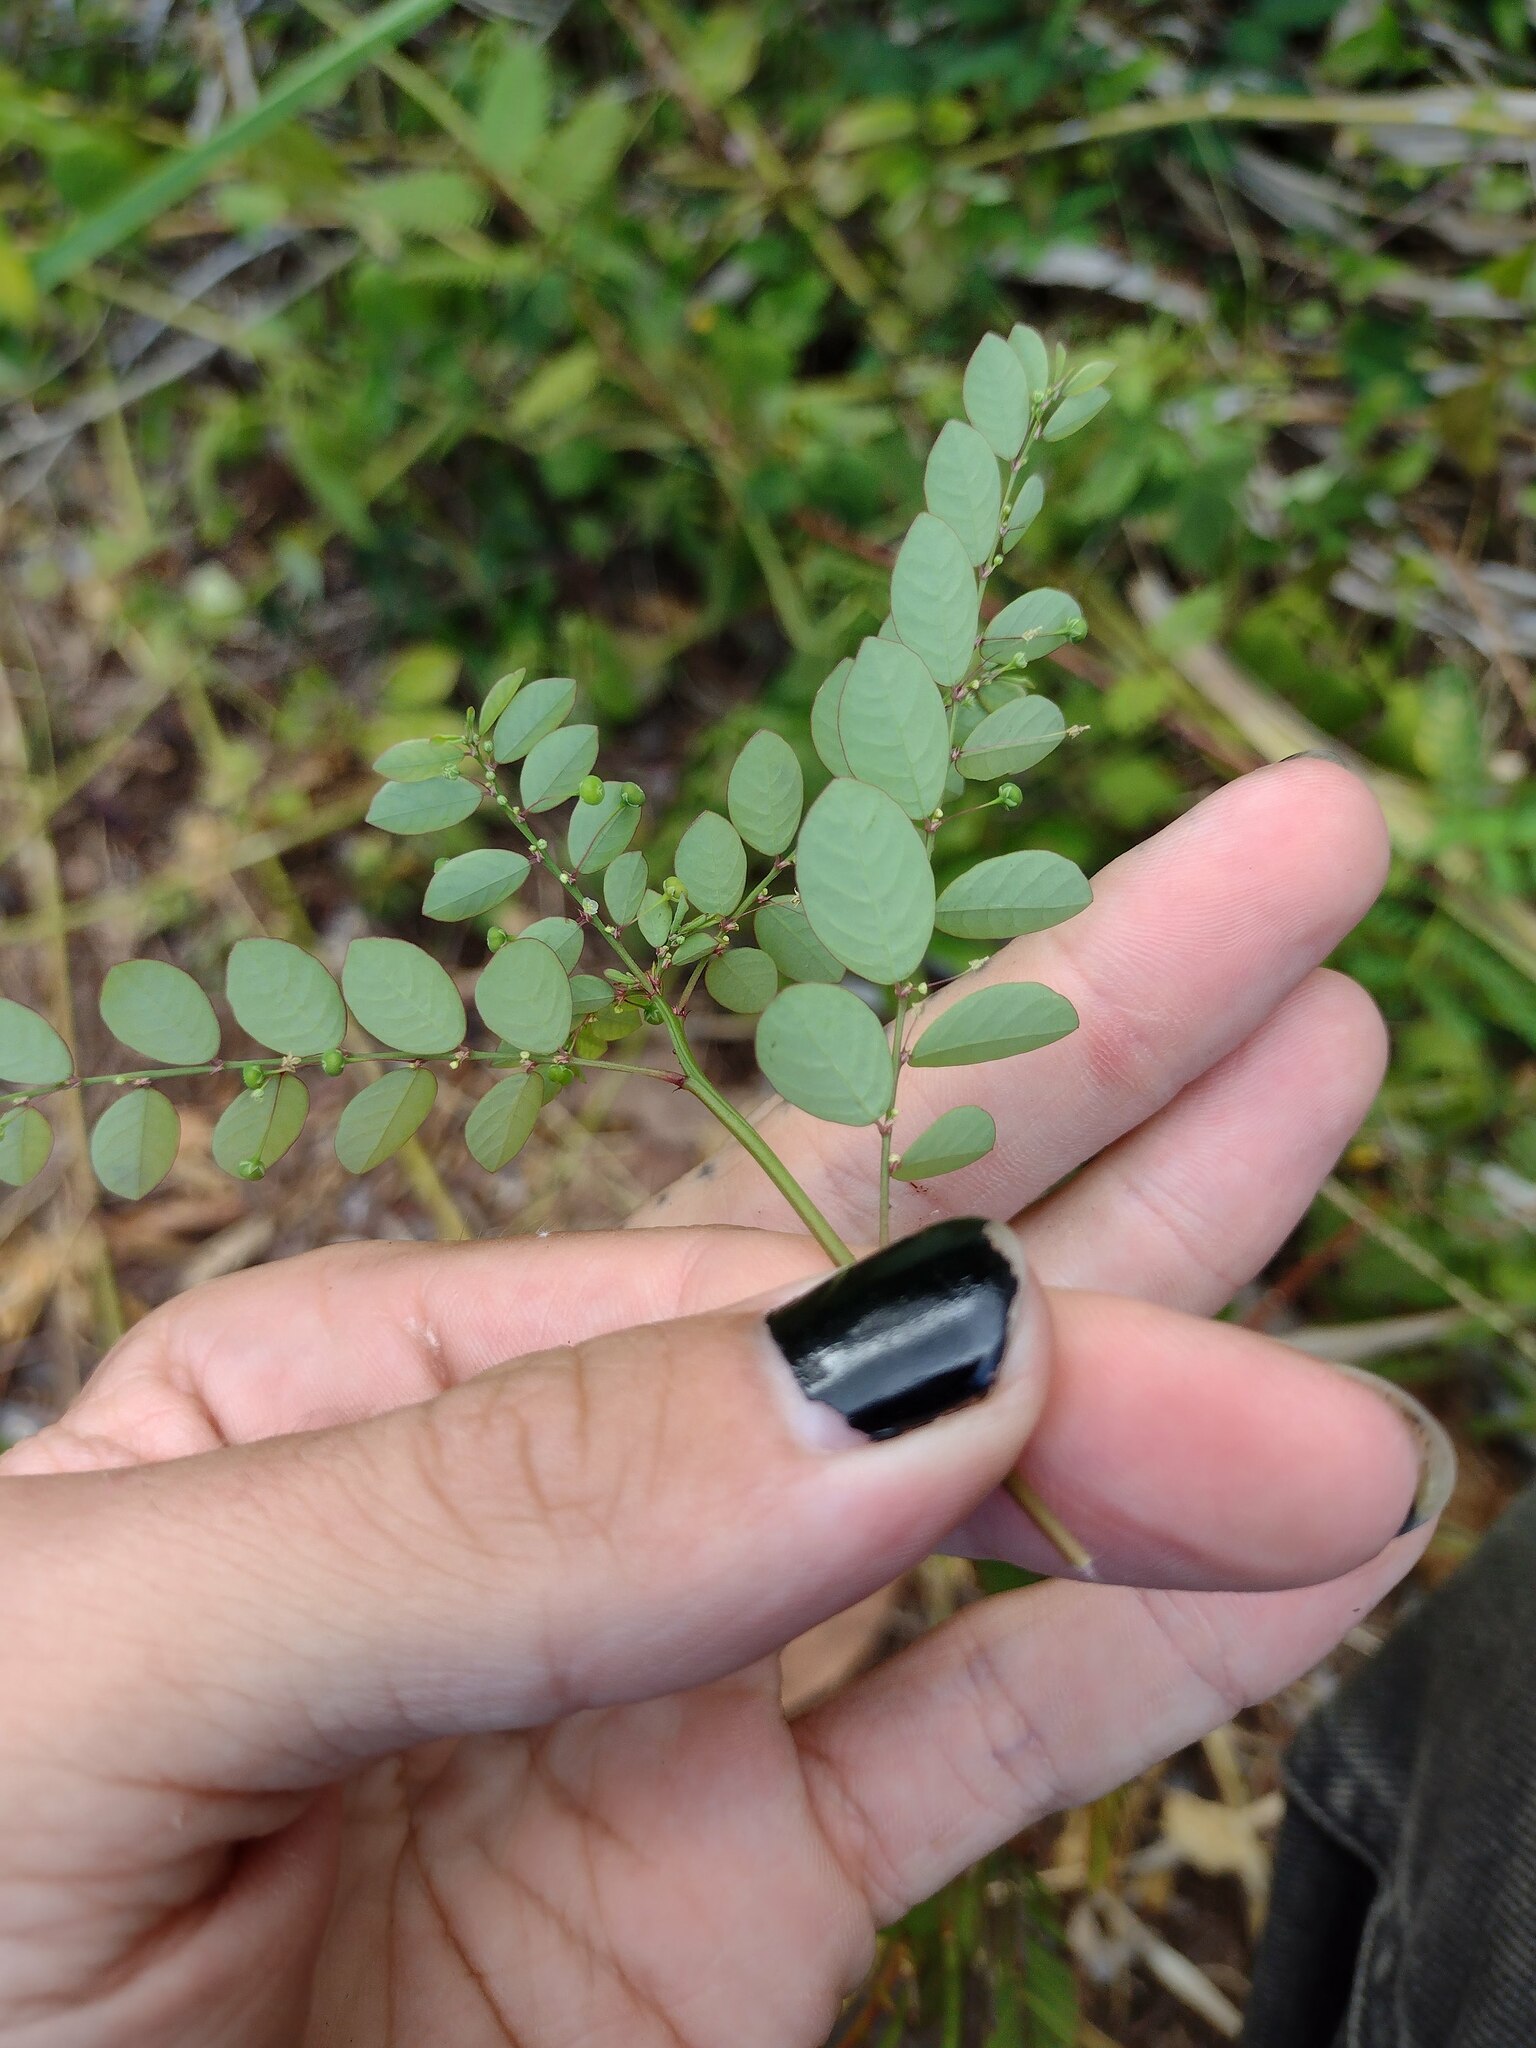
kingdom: Plantae
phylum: Tracheophyta
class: Magnoliopsida
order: Malpighiales
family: Phyllanthaceae
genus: Phyllanthus
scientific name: Phyllanthus tenellus
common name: Mascarene island leaf-flower
